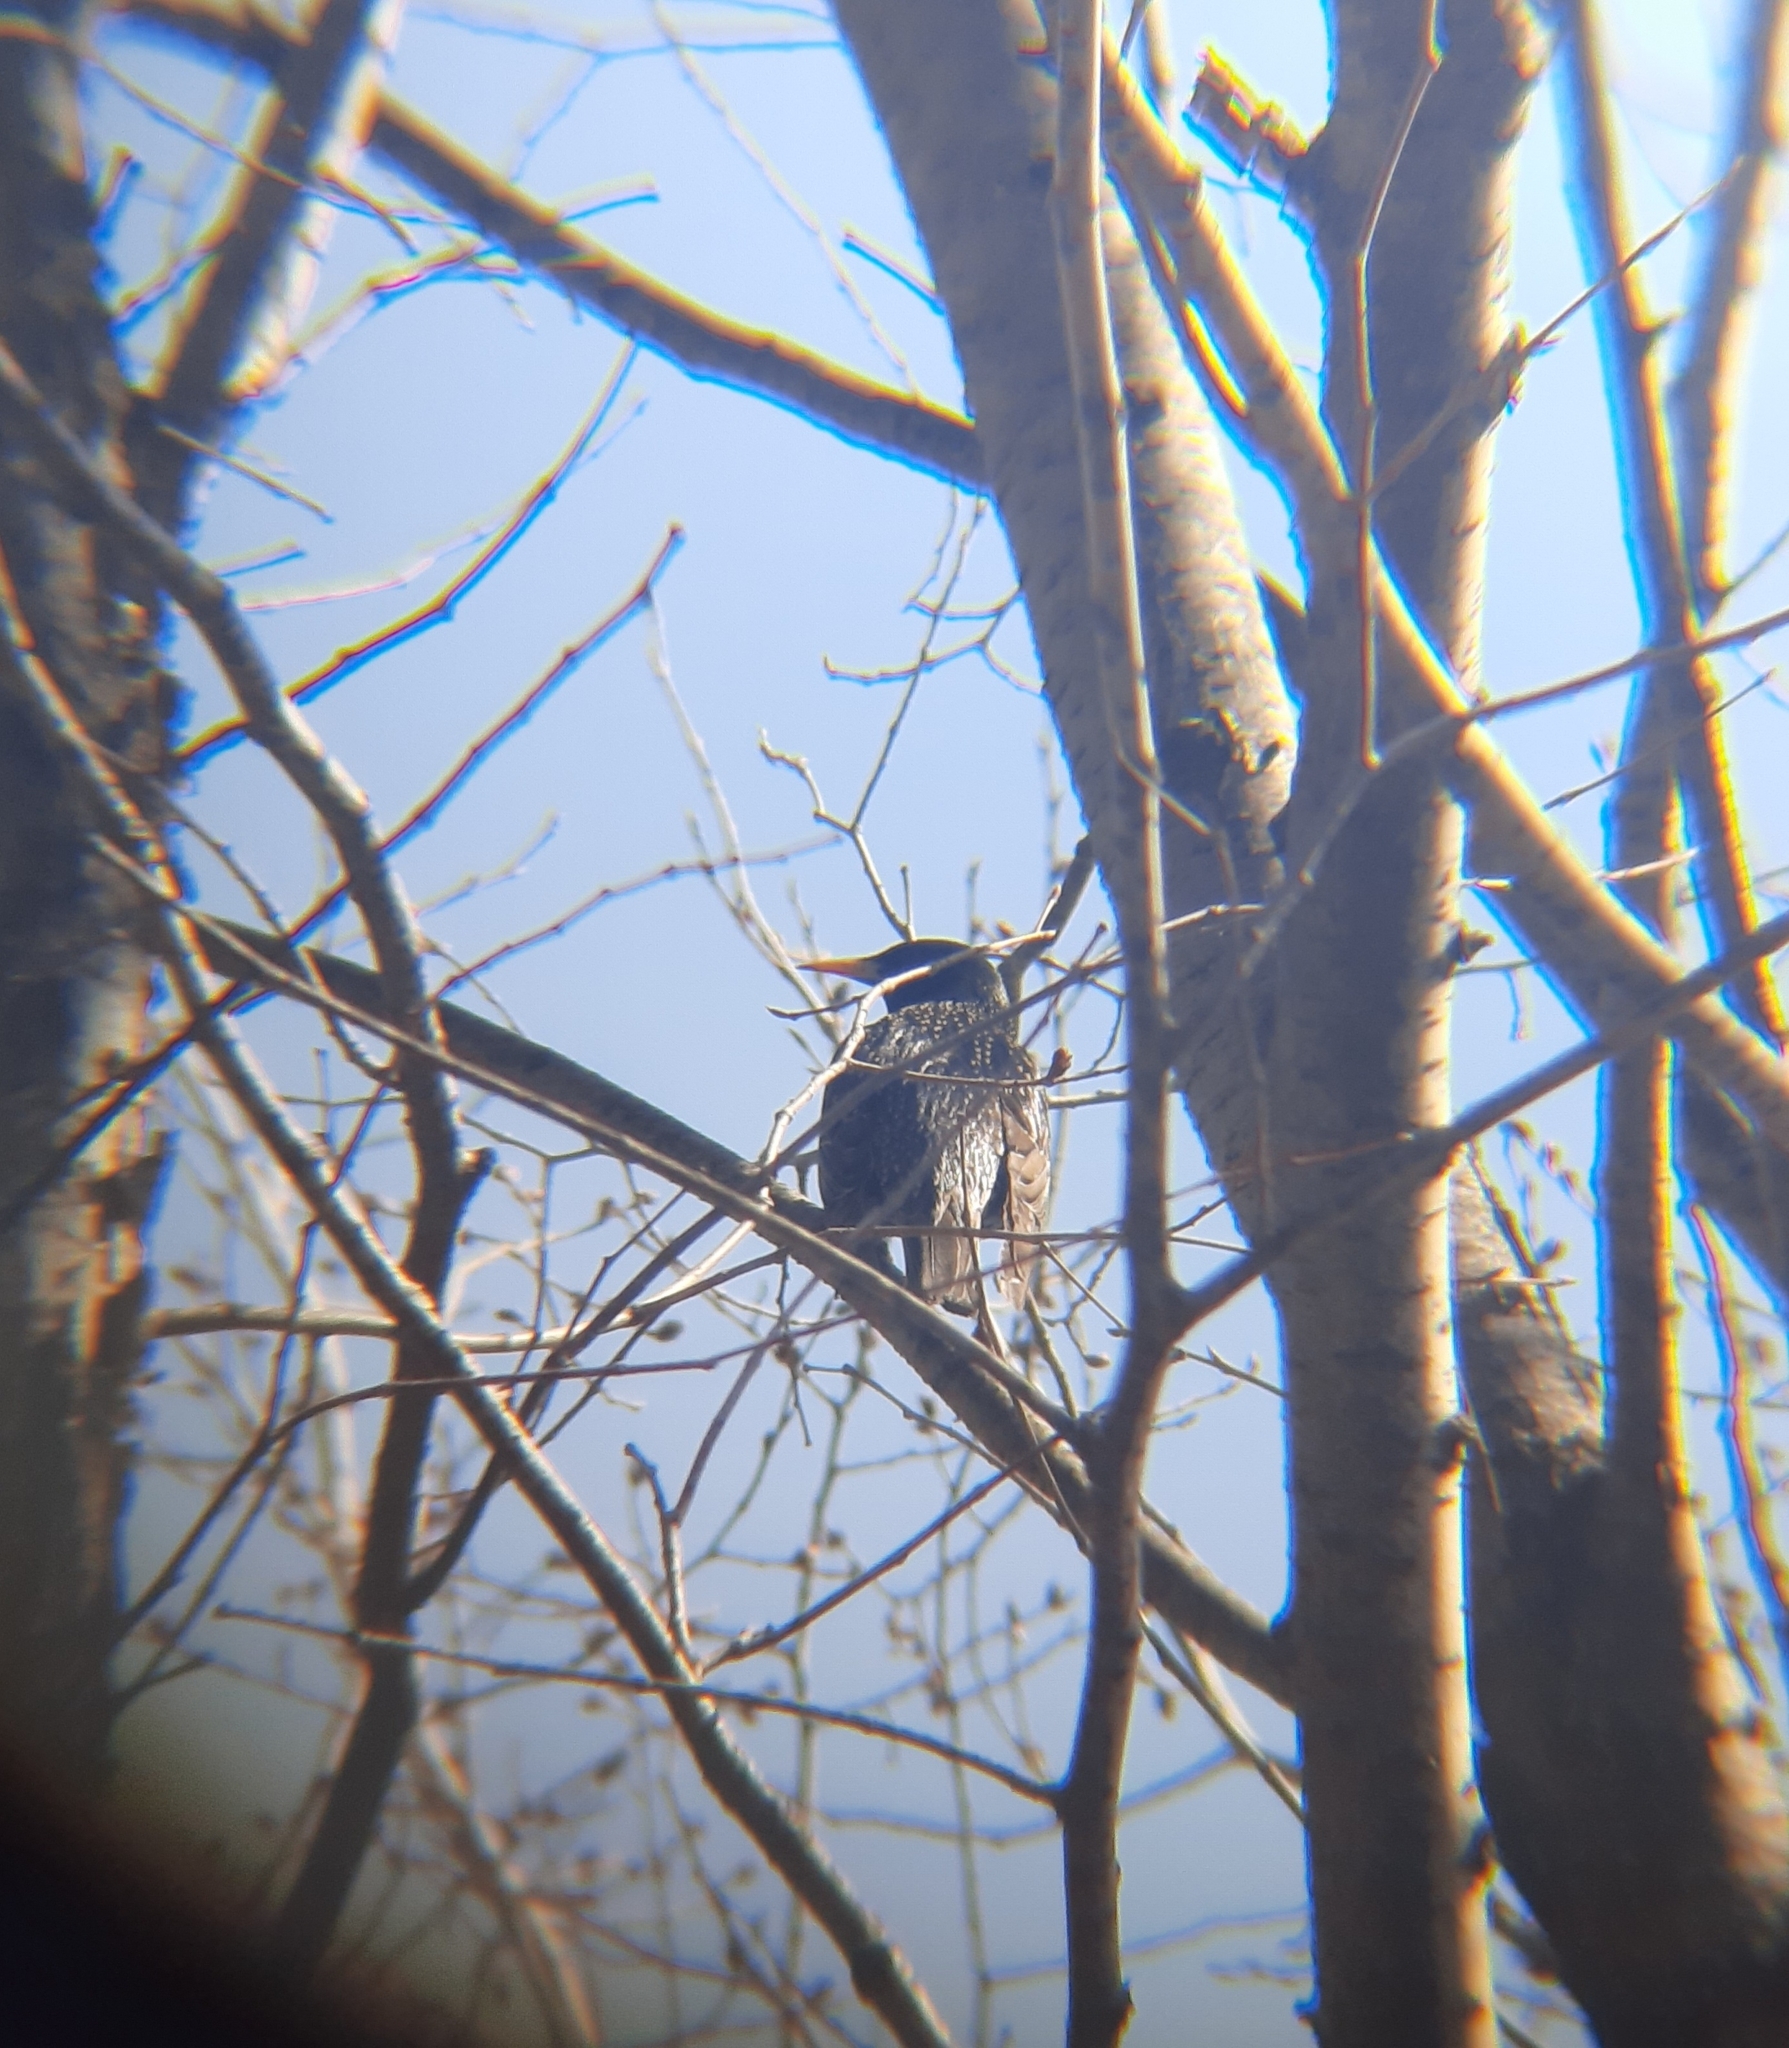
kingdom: Animalia
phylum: Chordata
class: Aves
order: Passeriformes
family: Sturnidae
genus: Sturnus
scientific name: Sturnus vulgaris
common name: Common starling
